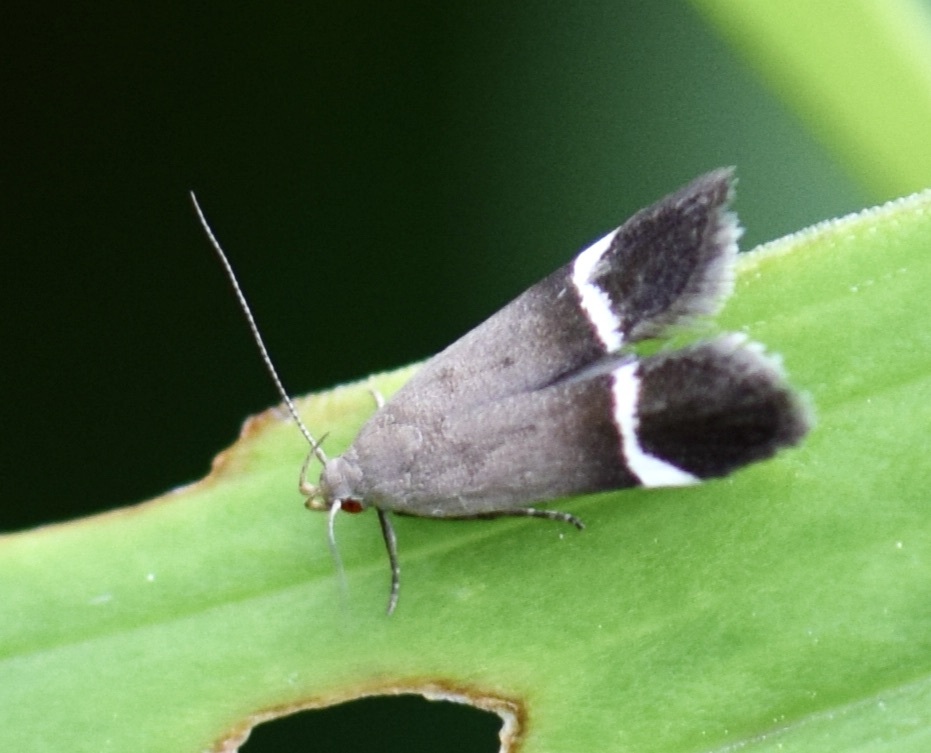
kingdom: Animalia
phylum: Arthropoda
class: Insecta
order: Lepidoptera
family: Gelechiidae
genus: Anacampsis
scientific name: Anacampsis agrimoniella
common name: Agrimony anacampsis moth
